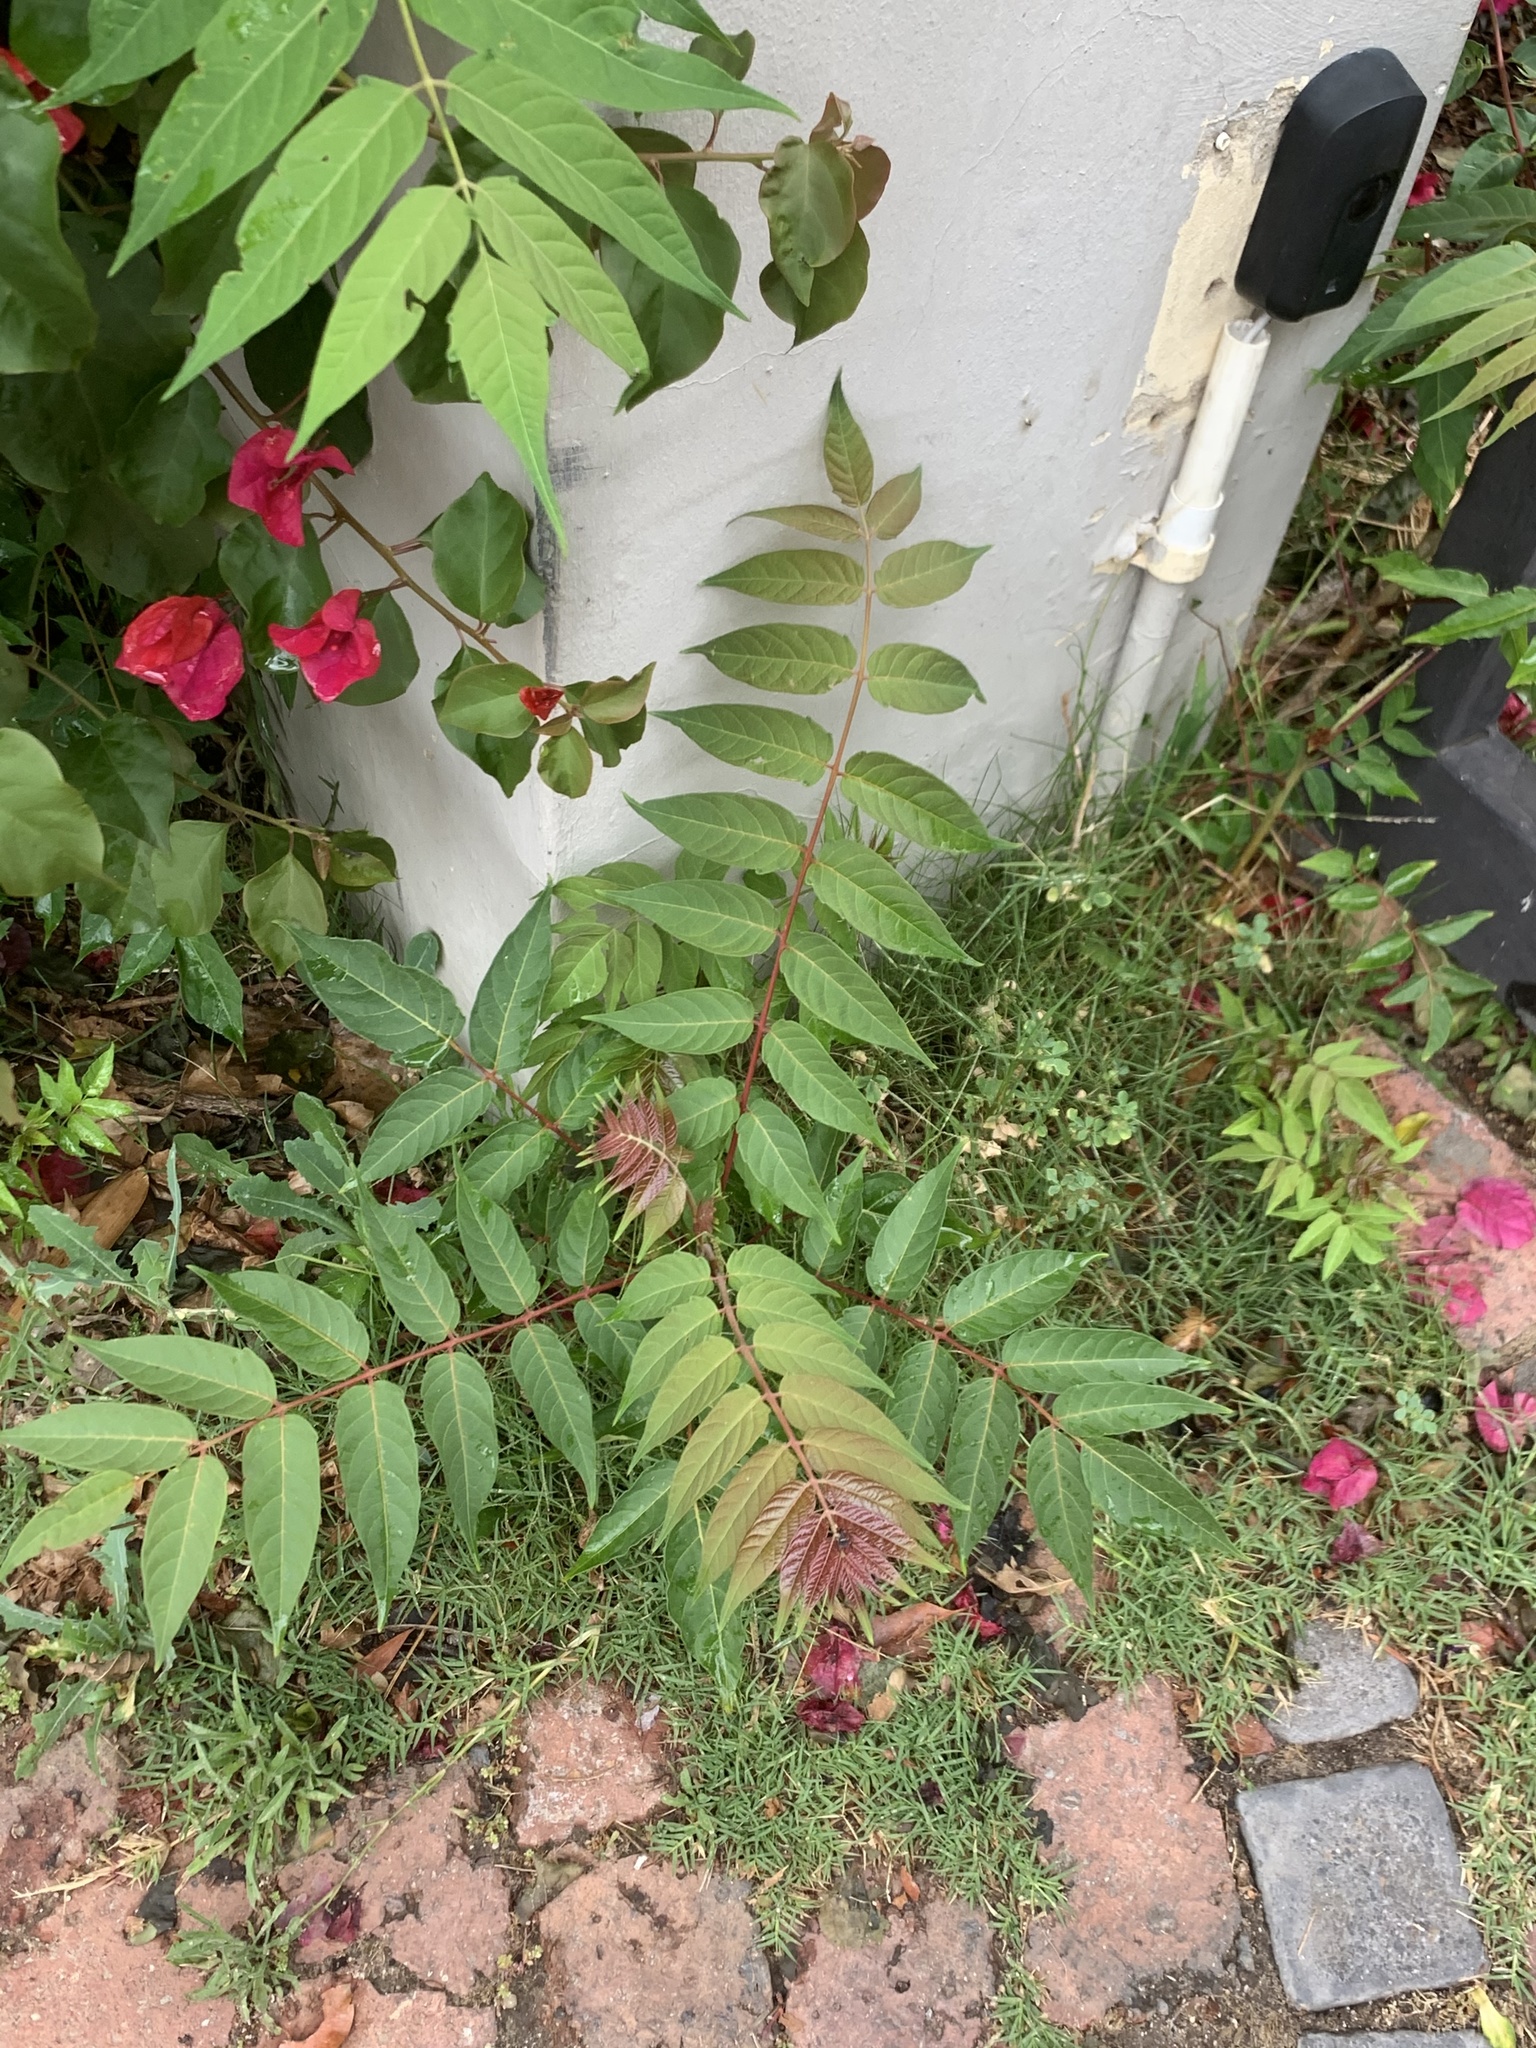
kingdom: Plantae
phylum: Tracheophyta
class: Magnoliopsida
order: Sapindales
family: Simaroubaceae
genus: Ailanthus
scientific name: Ailanthus altissima
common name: Tree-of-heaven
